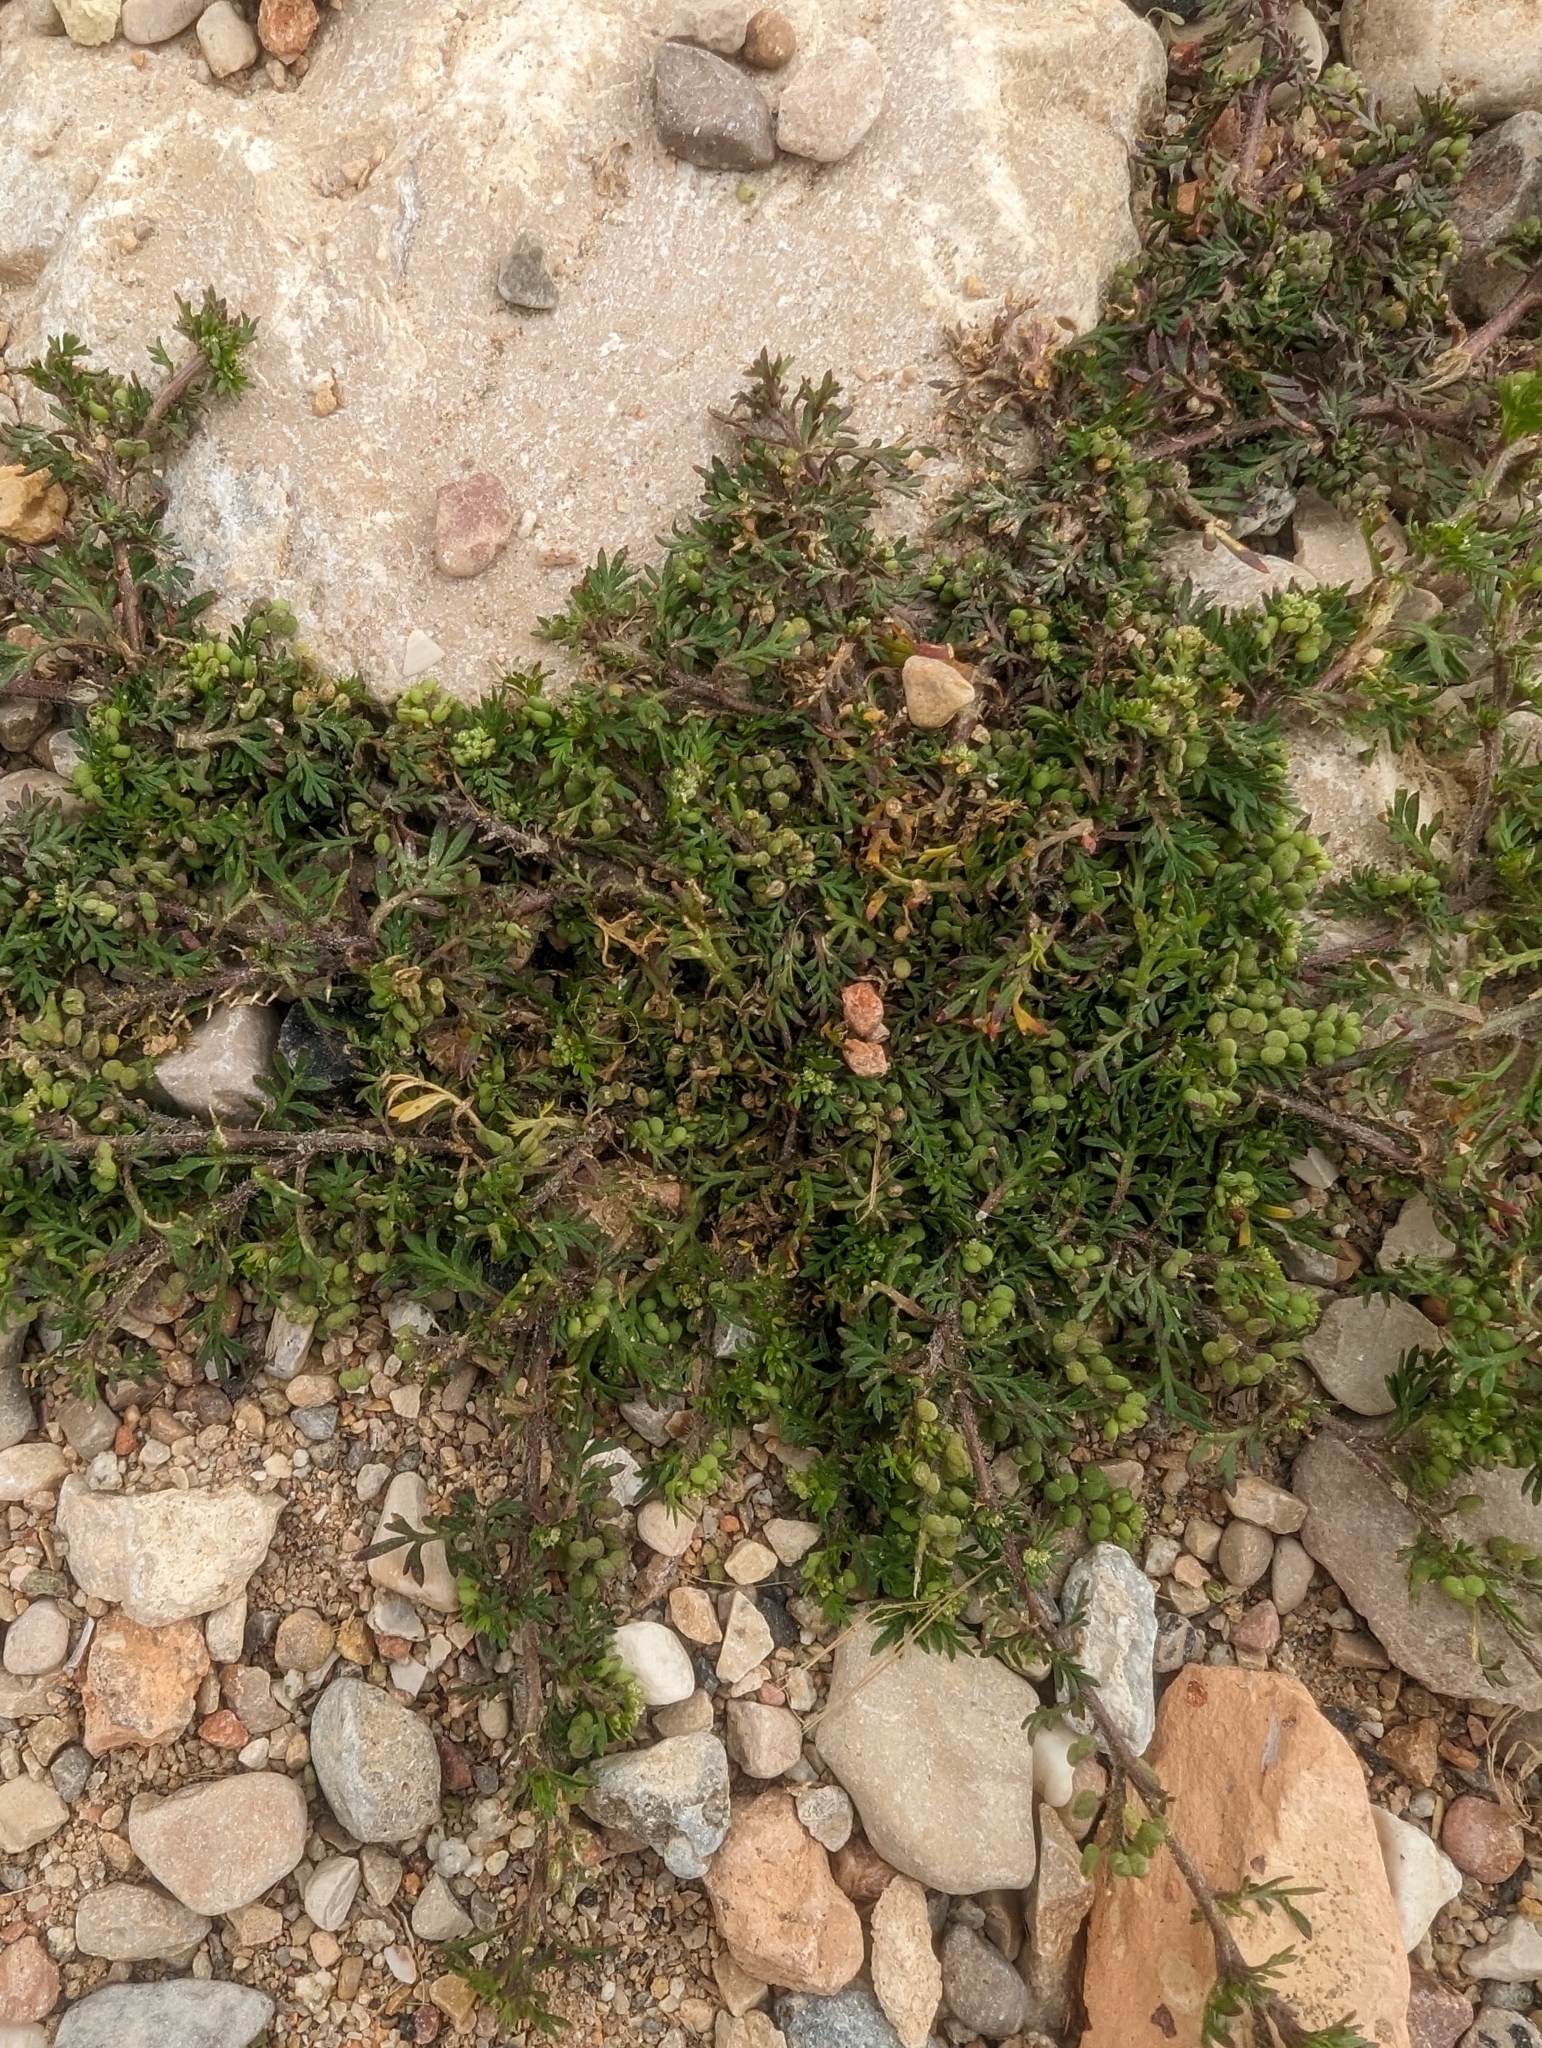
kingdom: Plantae
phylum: Tracheophyta
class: Magnoliopsida
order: Brassicales
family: Brassicaceae
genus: Lepidium
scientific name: Lepidium didymum
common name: Lesser swinecress
